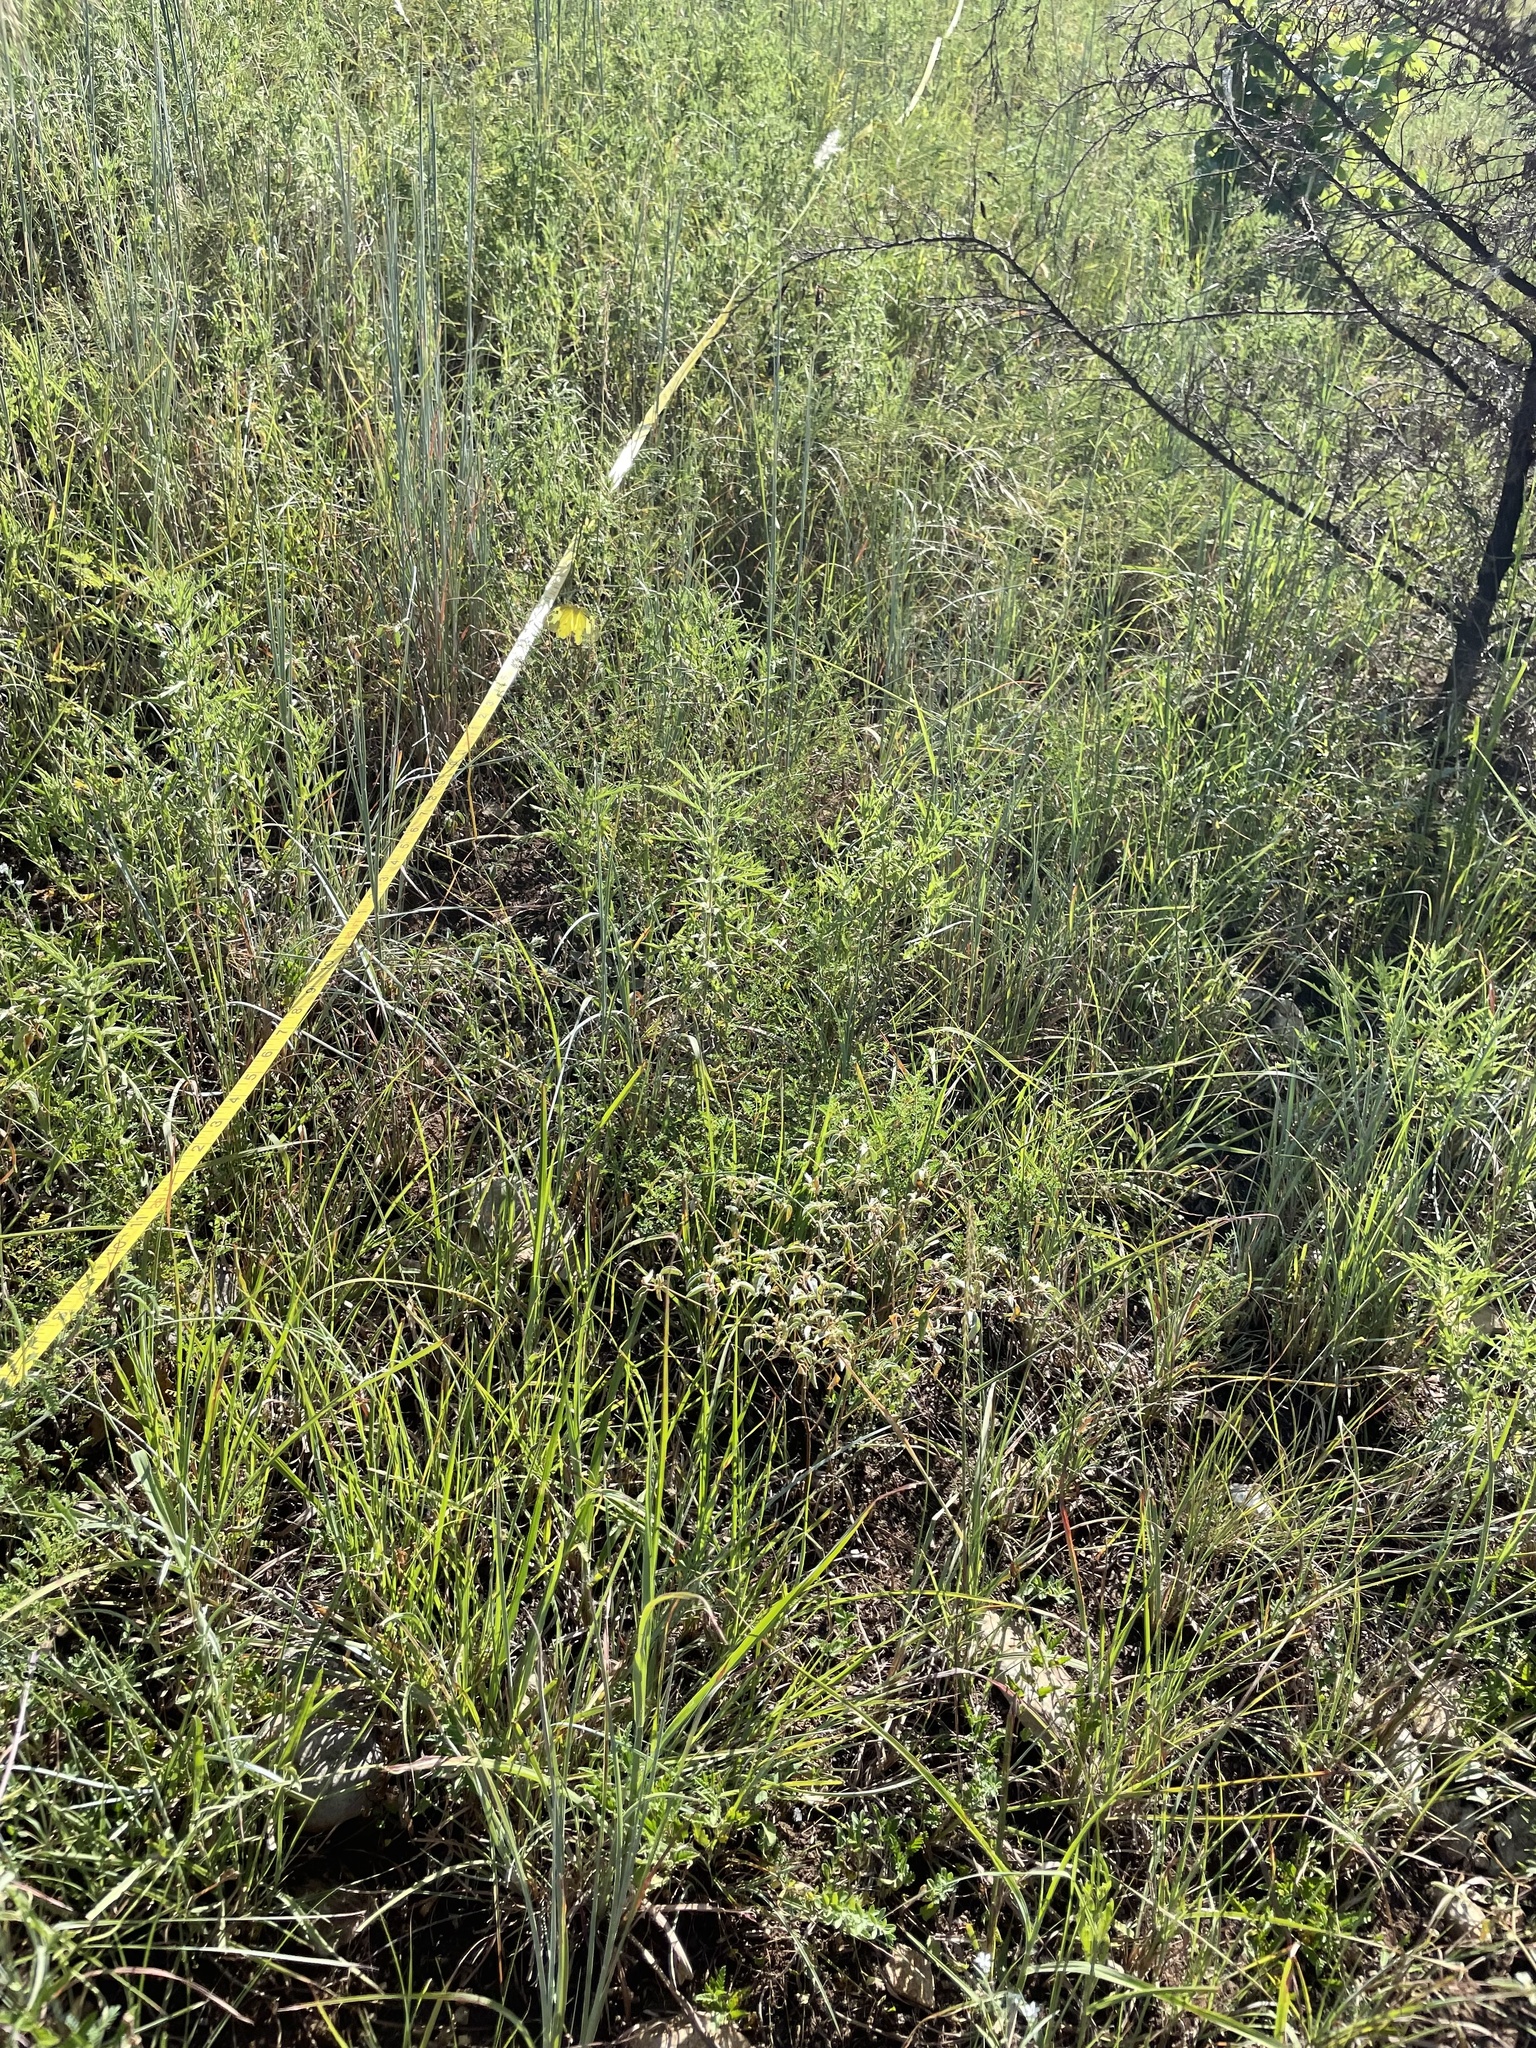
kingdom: Animalia
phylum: Arthropoda
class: Insecta
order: Lepidoptera
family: Pieridae
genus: Zerene
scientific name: Zerene cesonia
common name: Southern dogface
